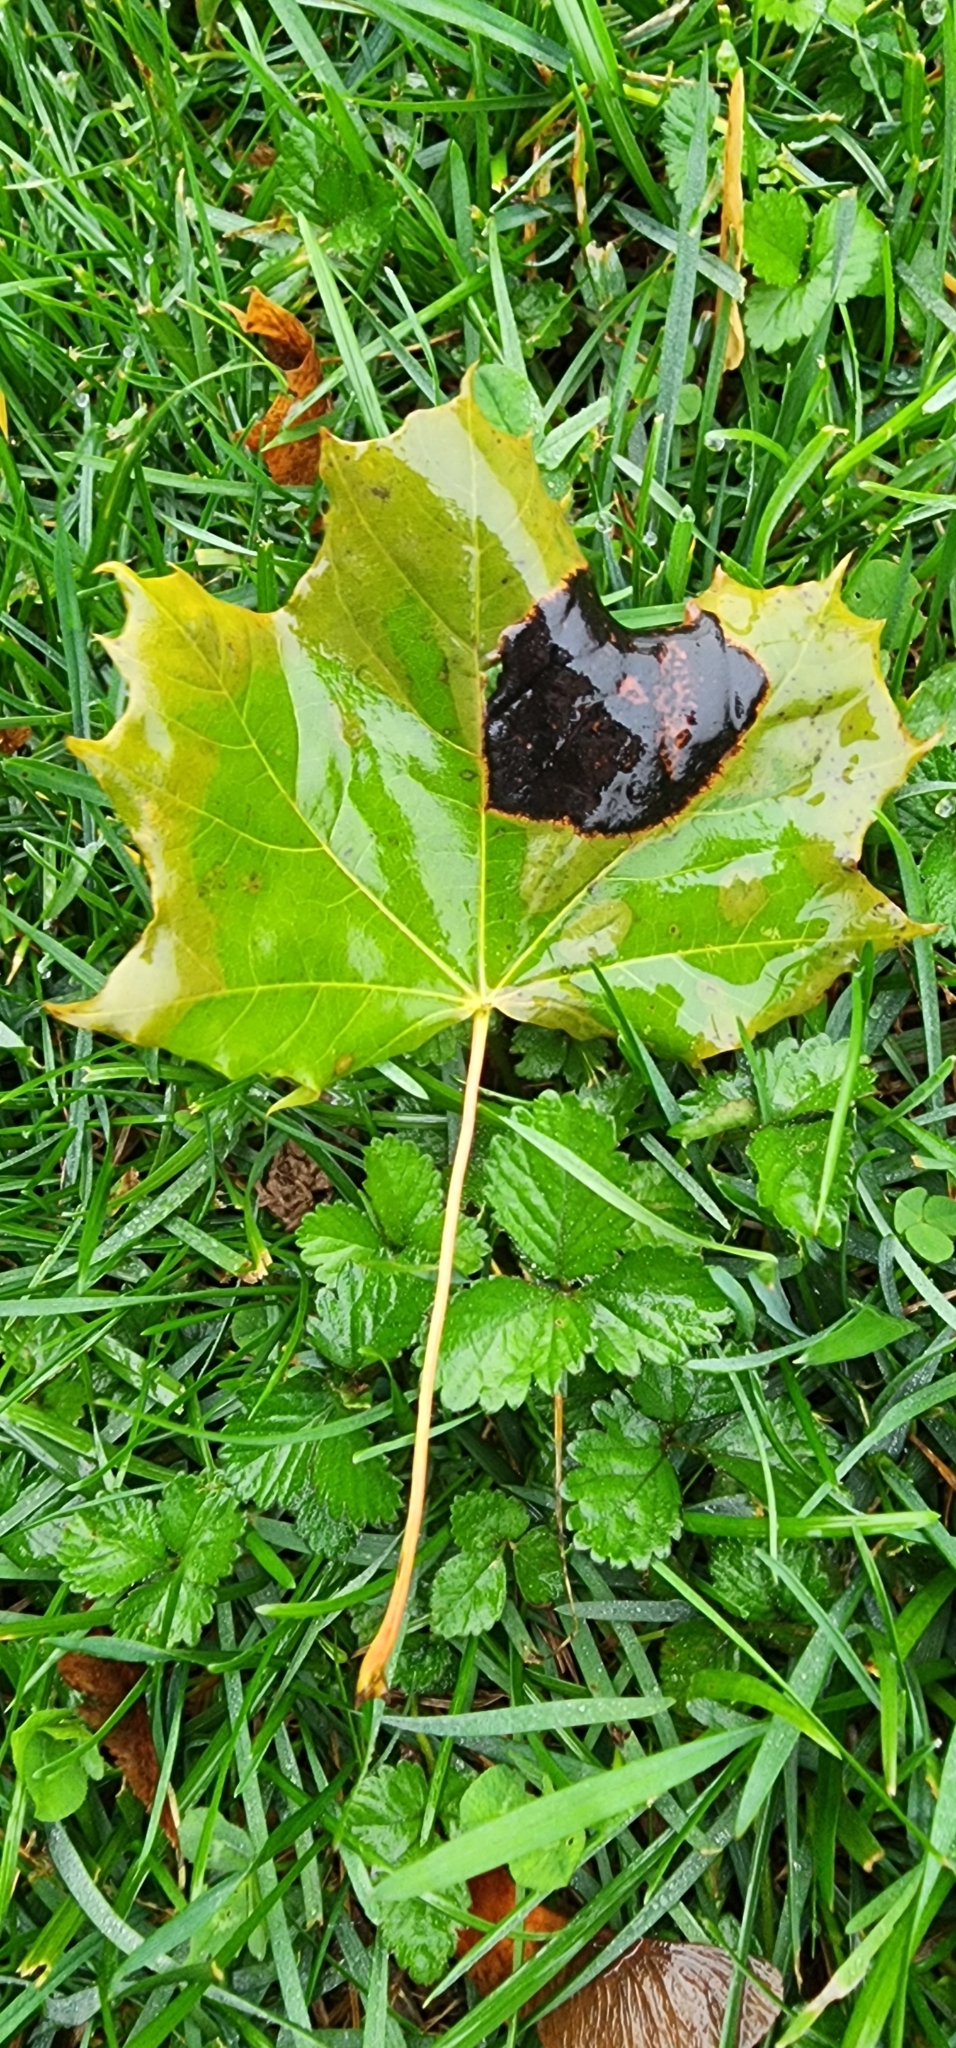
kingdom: Plantae
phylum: Tracheophyta
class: Magnoliopsida
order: Sapindales
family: Sapindaceae
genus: Acer
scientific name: Acer platanoides
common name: Norway maple
